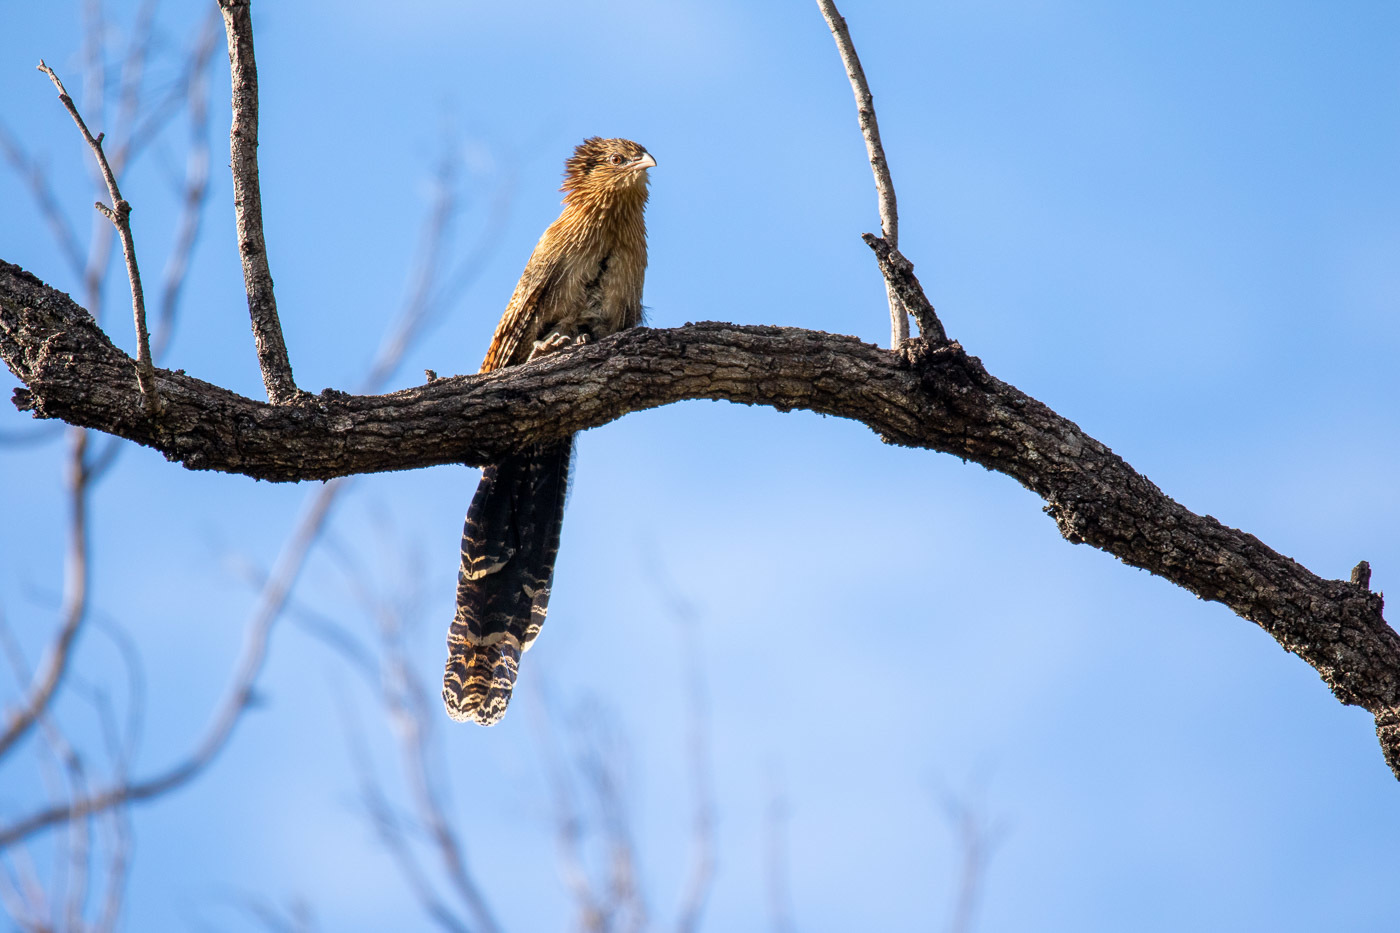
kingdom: Animalia
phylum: Chordata
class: Aves
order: Cuculiformes
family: Cuculidae
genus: Centropus
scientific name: Centropus phasianinus
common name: Pheasant coucal
